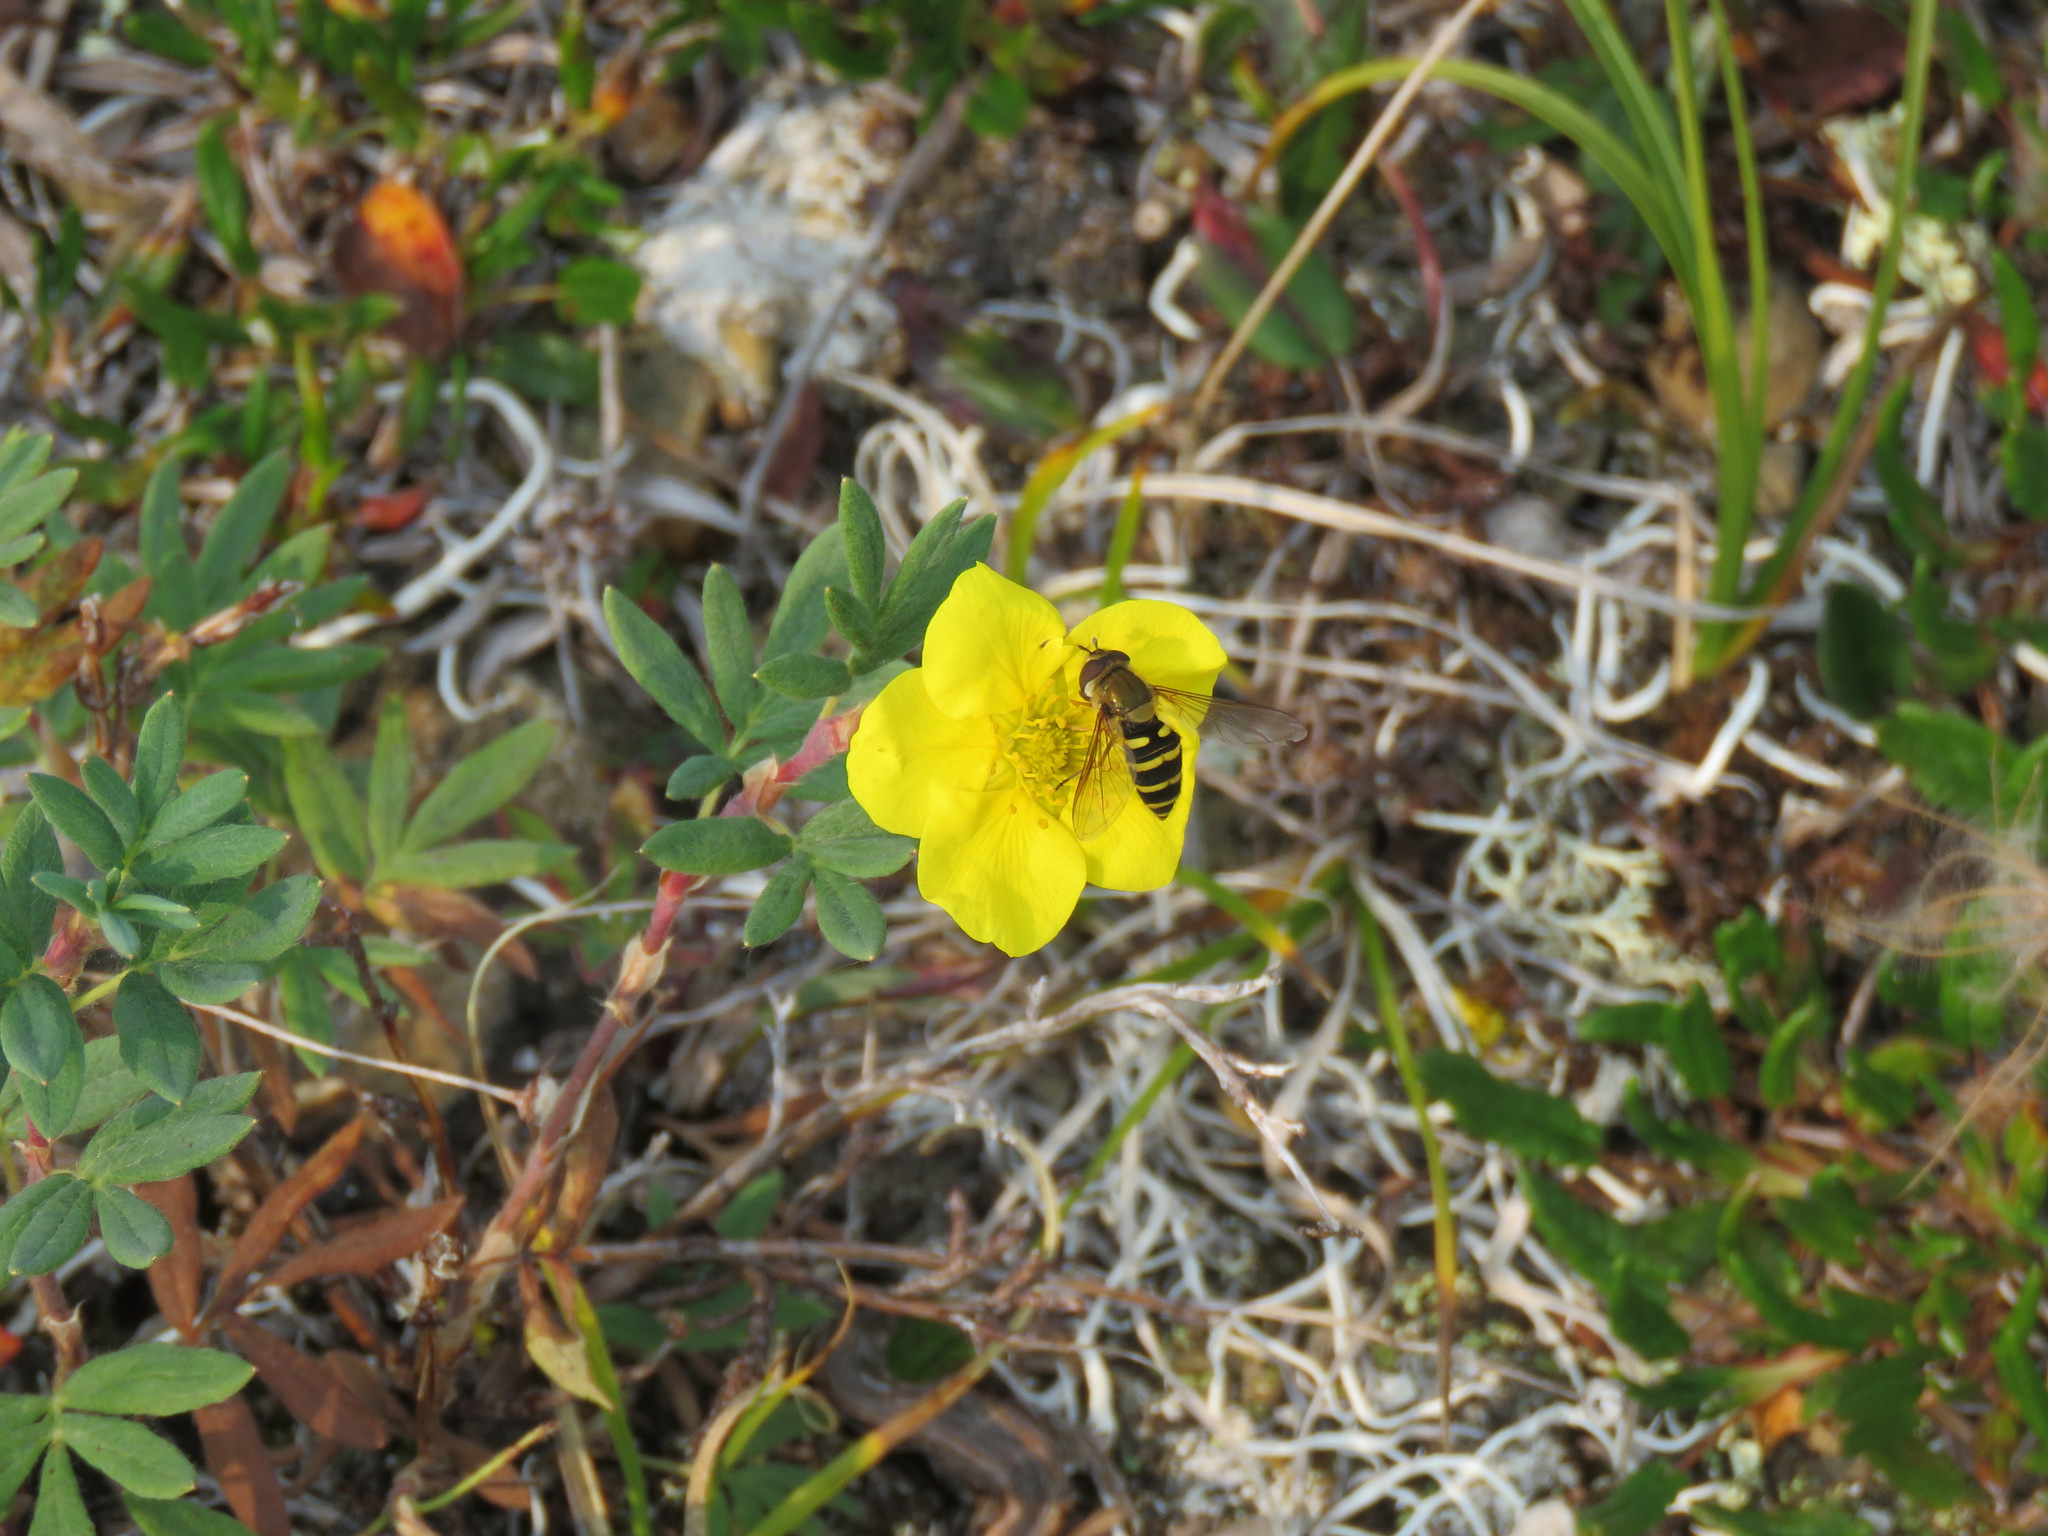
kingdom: Animalia
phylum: Arthropoda
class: Insecta
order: Diptera
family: Syrphidae
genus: Syrphus
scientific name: Syrphus
